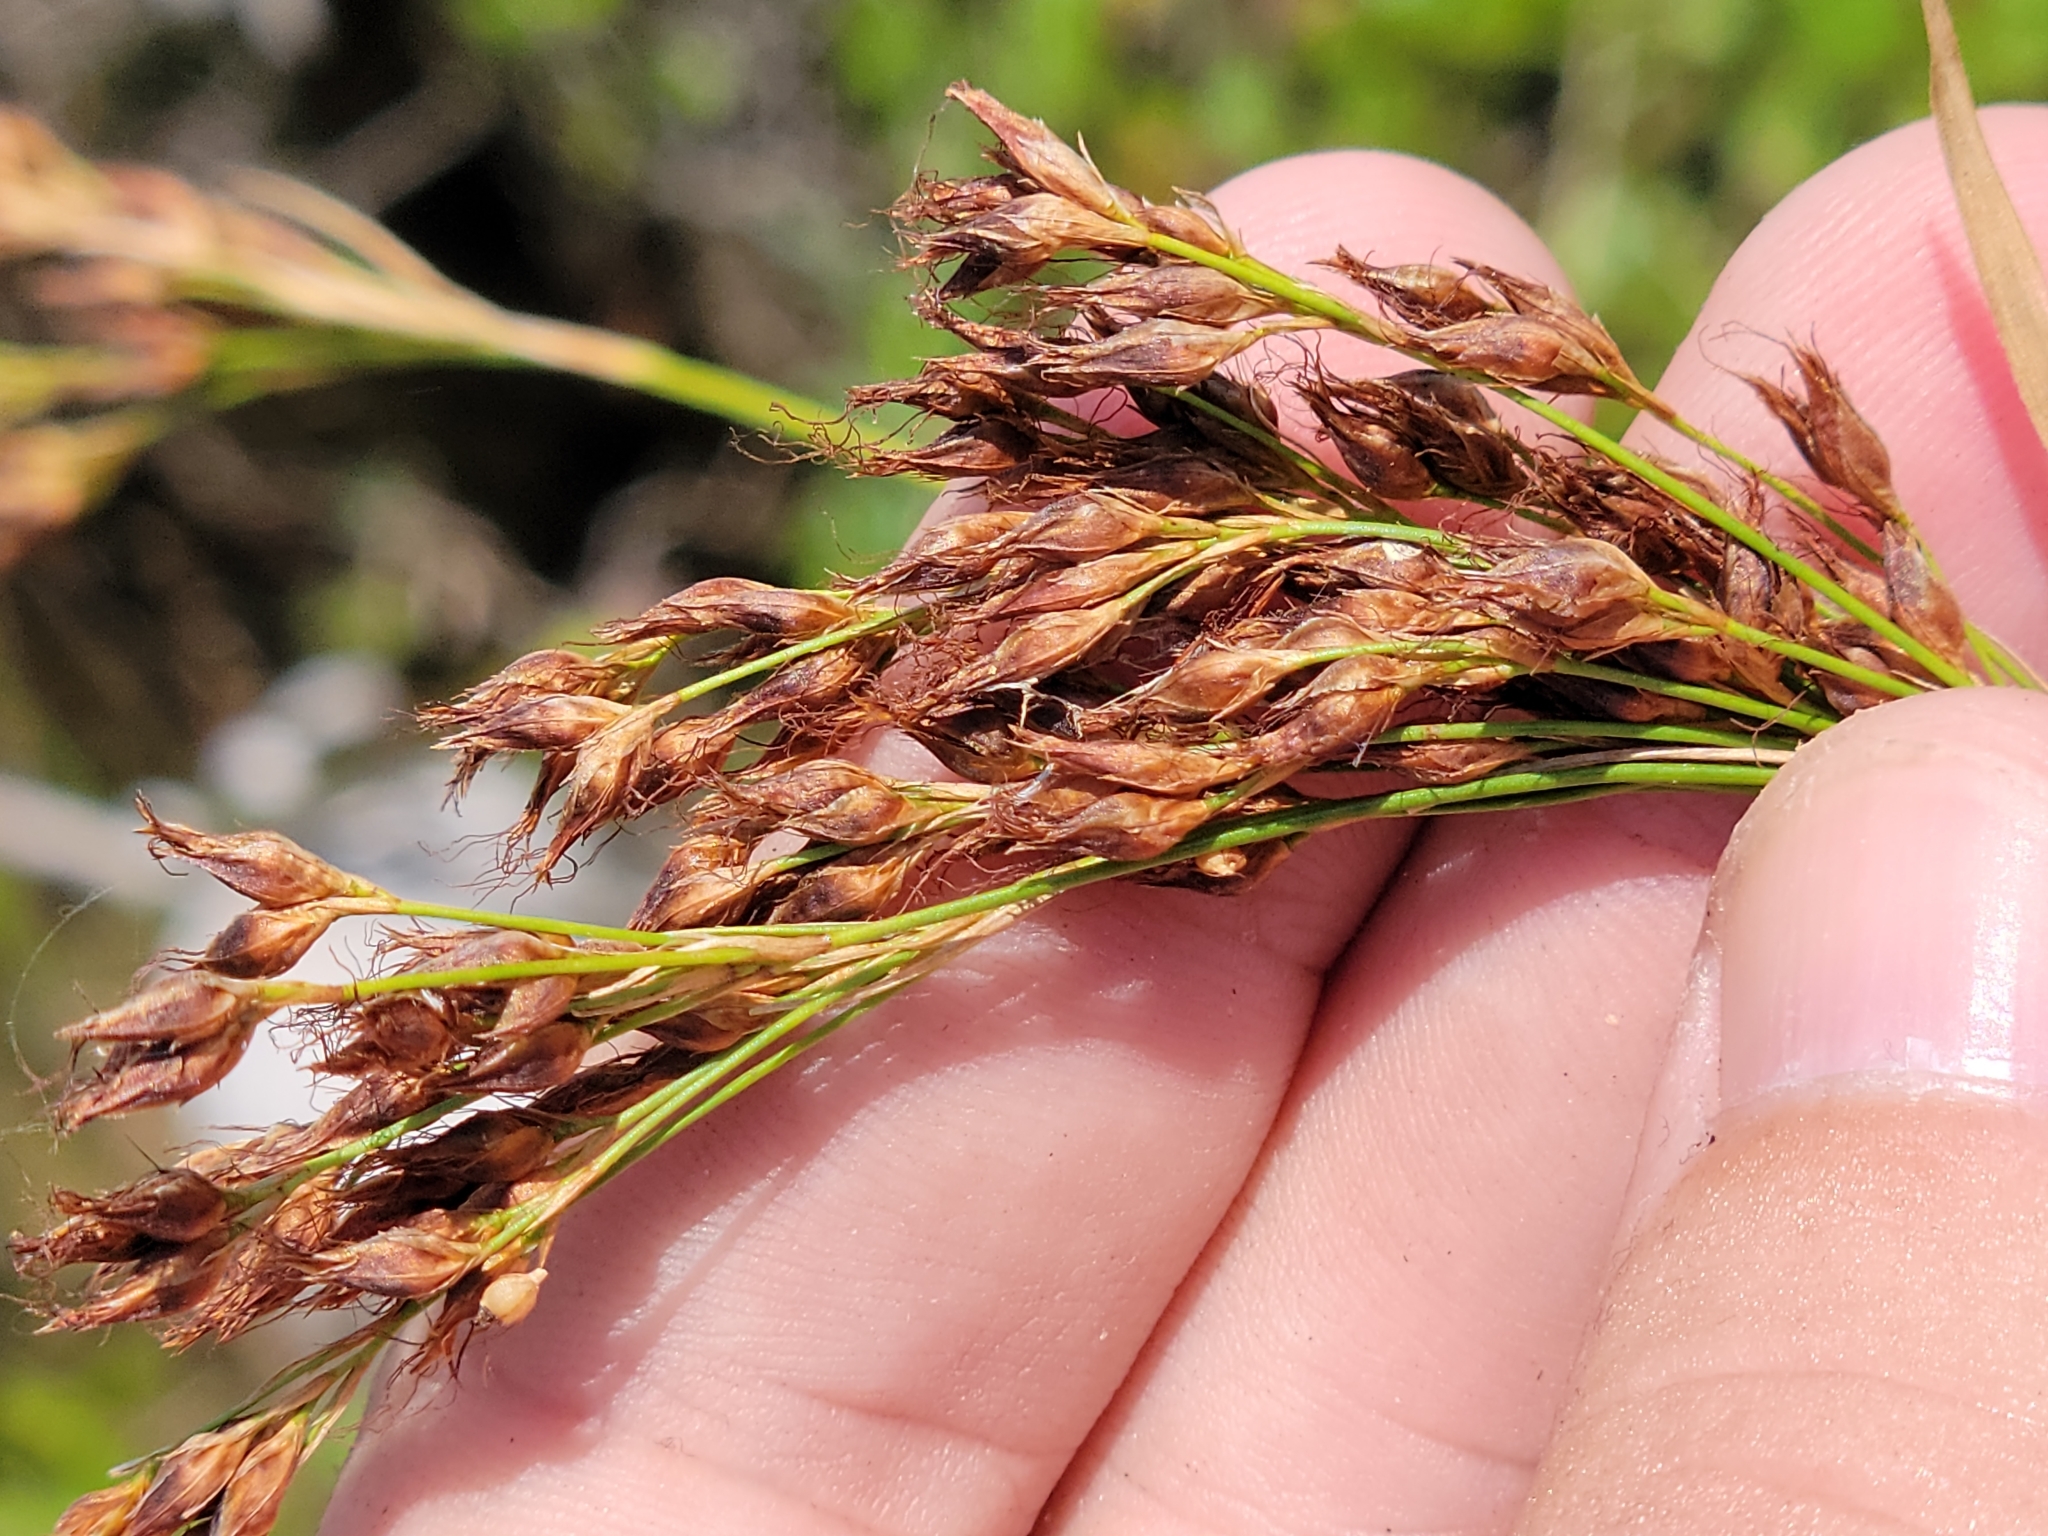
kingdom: Plantae
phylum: Tracheophyta
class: Liliopsida
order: Poales
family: Cyperaceae
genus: Rhynchospora
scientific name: Rhynchospora odorata
